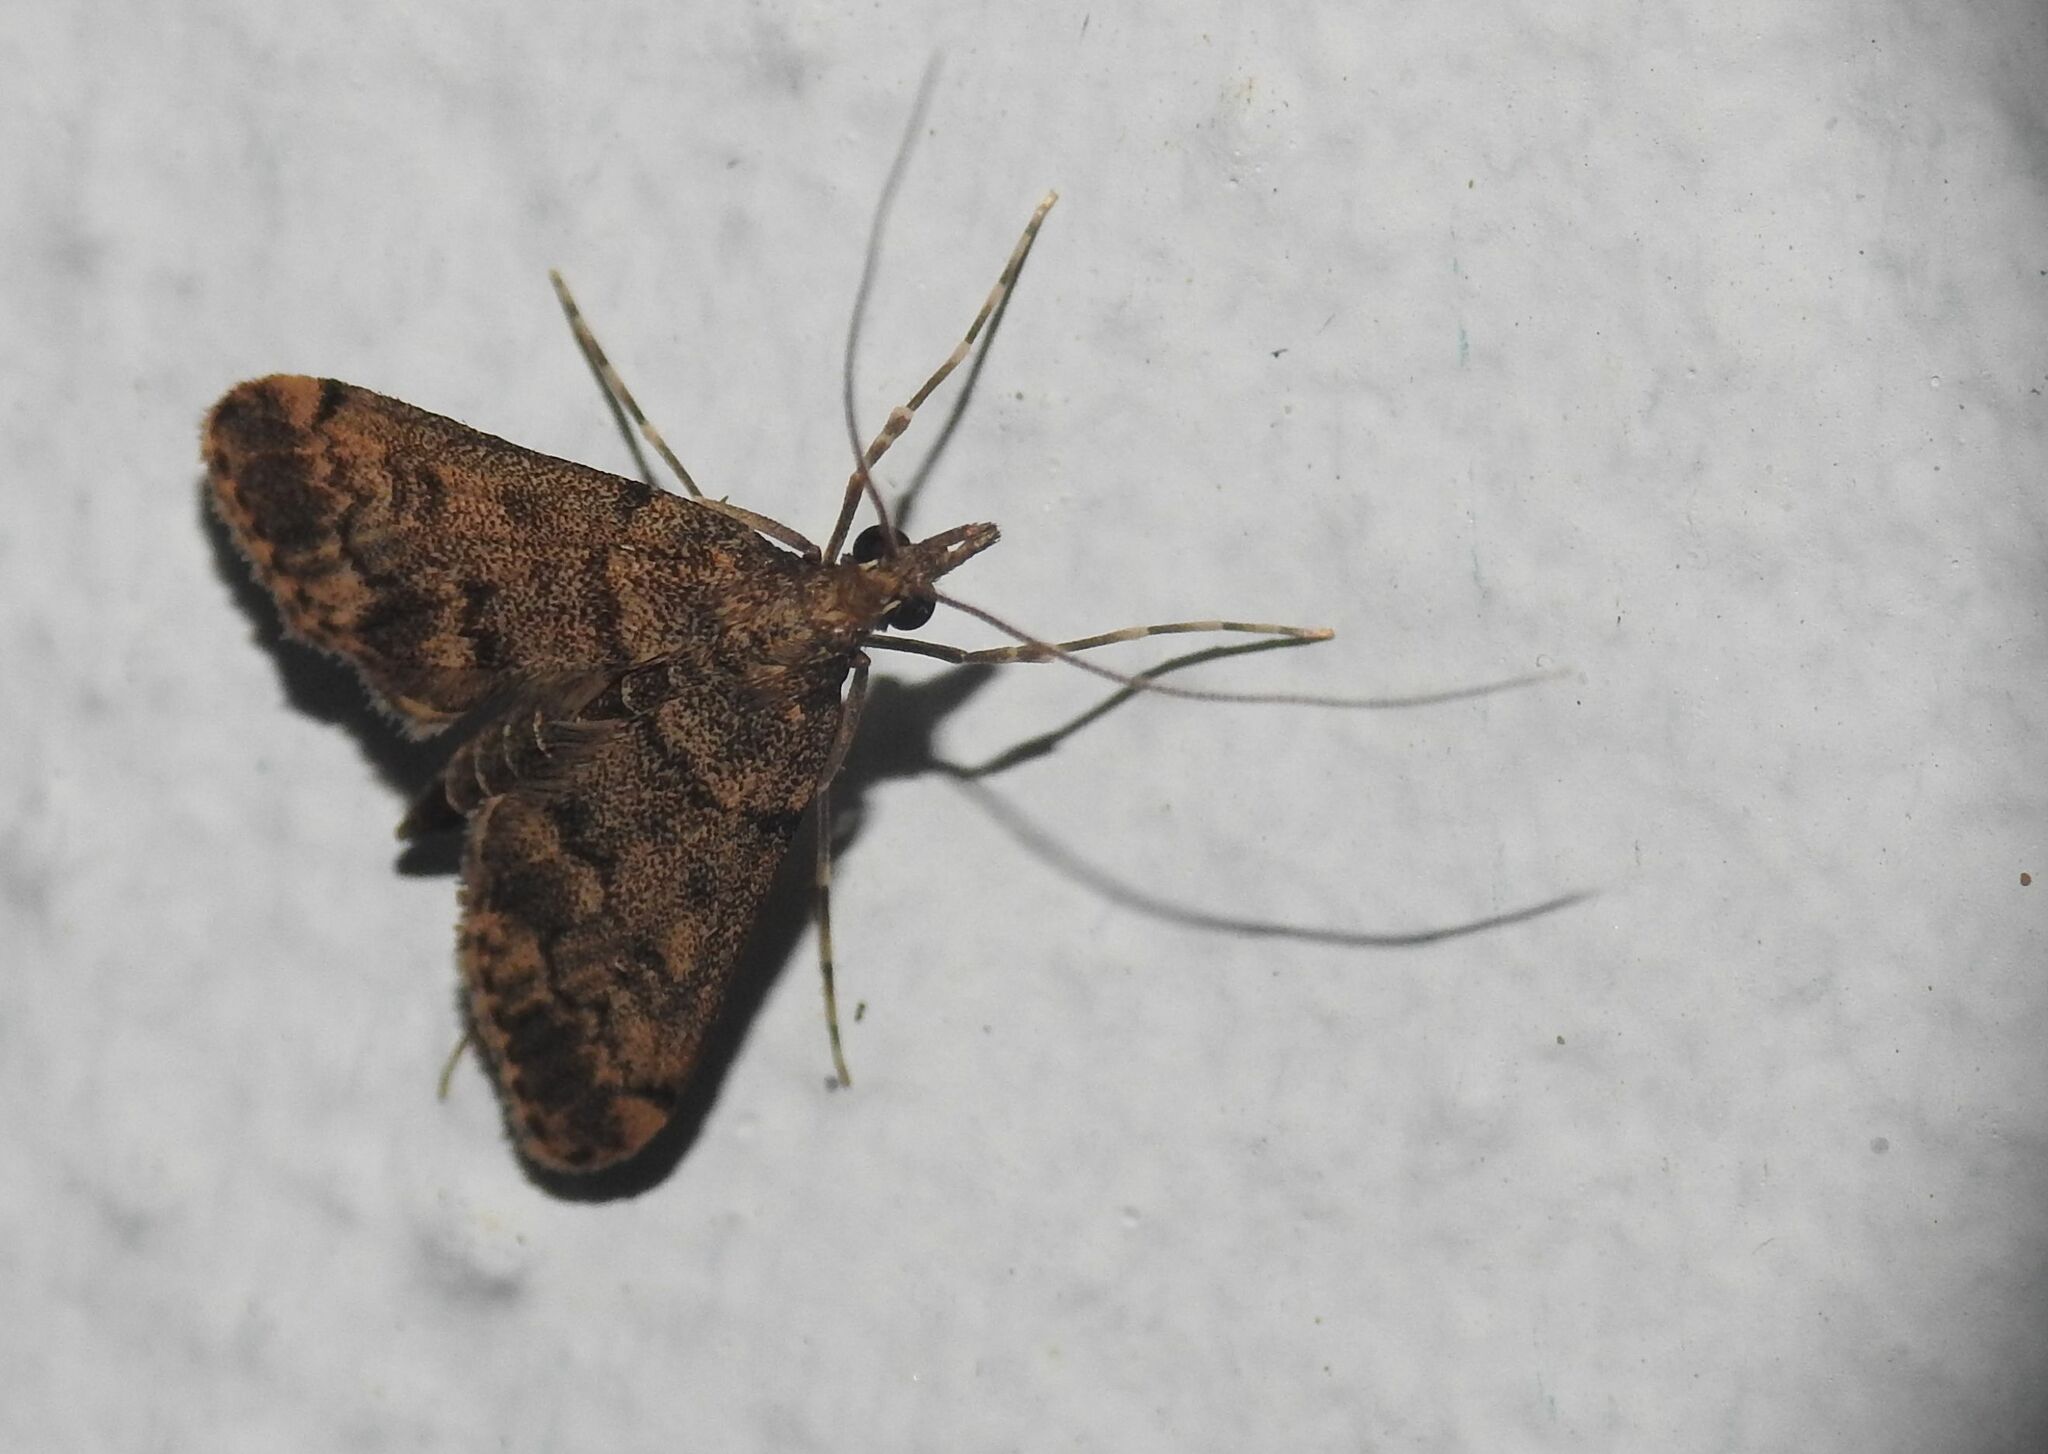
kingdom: Animalia
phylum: Arthropoda
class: Insecta
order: Lepidoptera
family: Crambidae
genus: Stenia
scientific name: Stenia Dolicharthria bruguieralis
